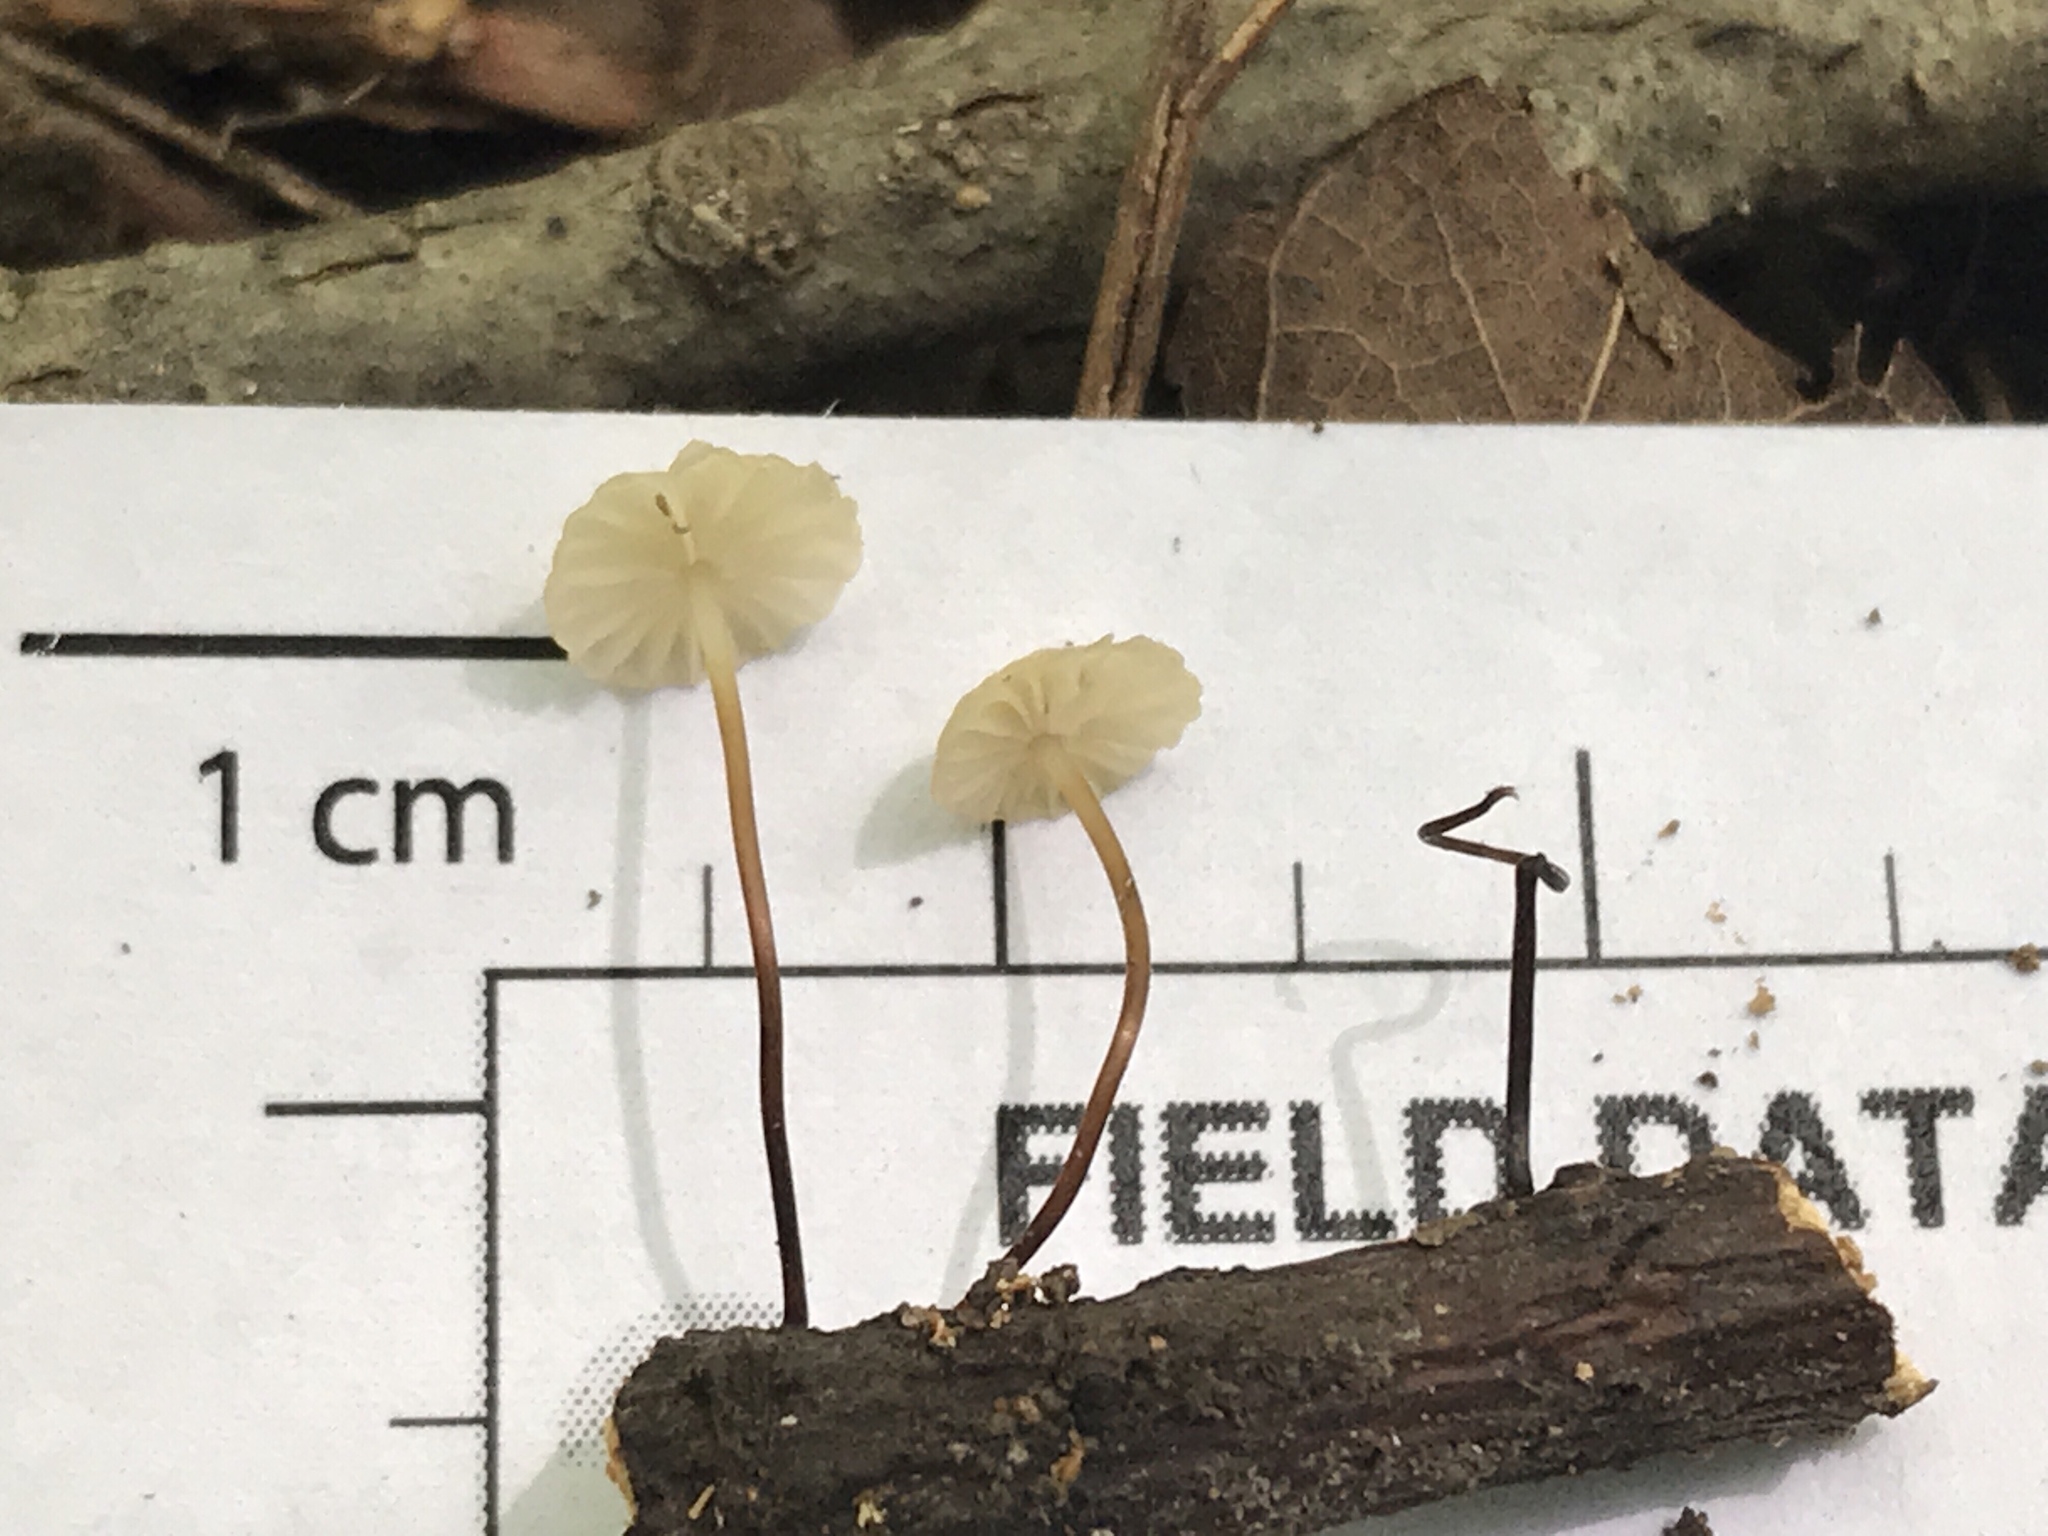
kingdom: Fungi
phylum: Basidiomycota
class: Agaricomycetes
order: Agaricales
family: Marasmiaceae
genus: Marasmius
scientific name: Marasmius rotula
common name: Collared parachute
